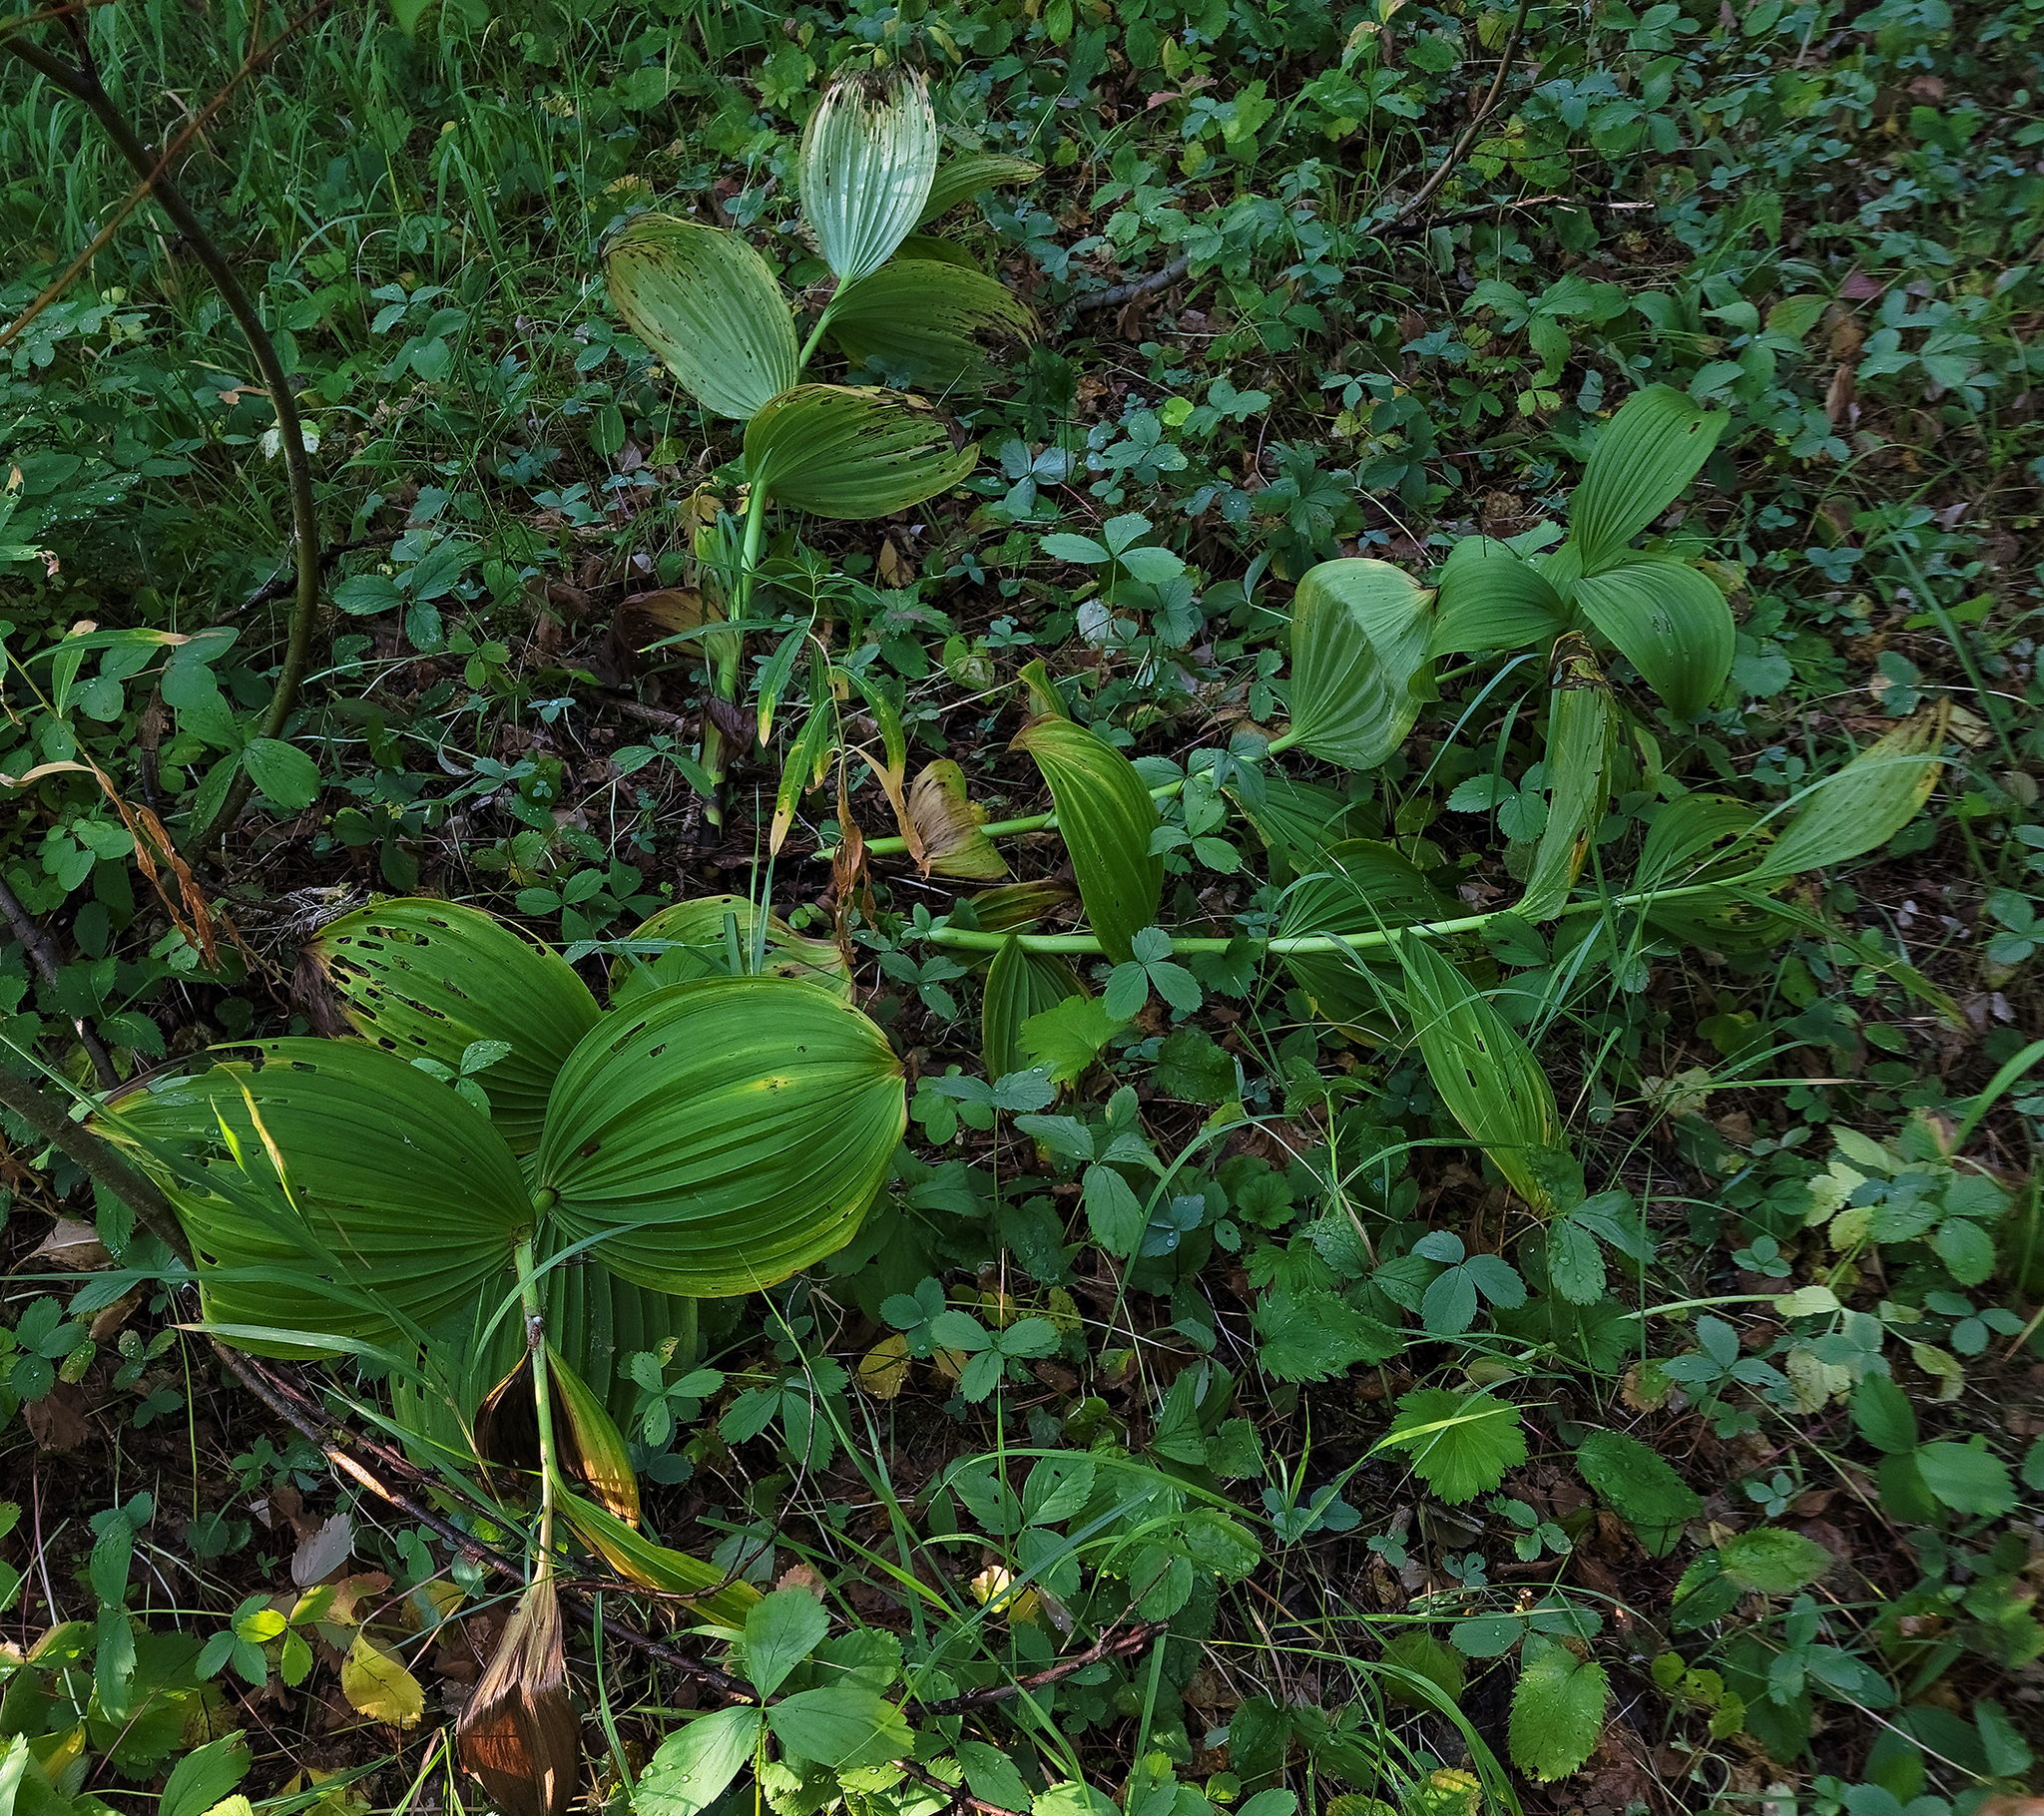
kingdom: Plantae
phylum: Tracheophyta
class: Liliopsida
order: Liliales
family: Melanthiaceae
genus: Veratrum
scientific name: Veratrum viride
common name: American false hellebore
